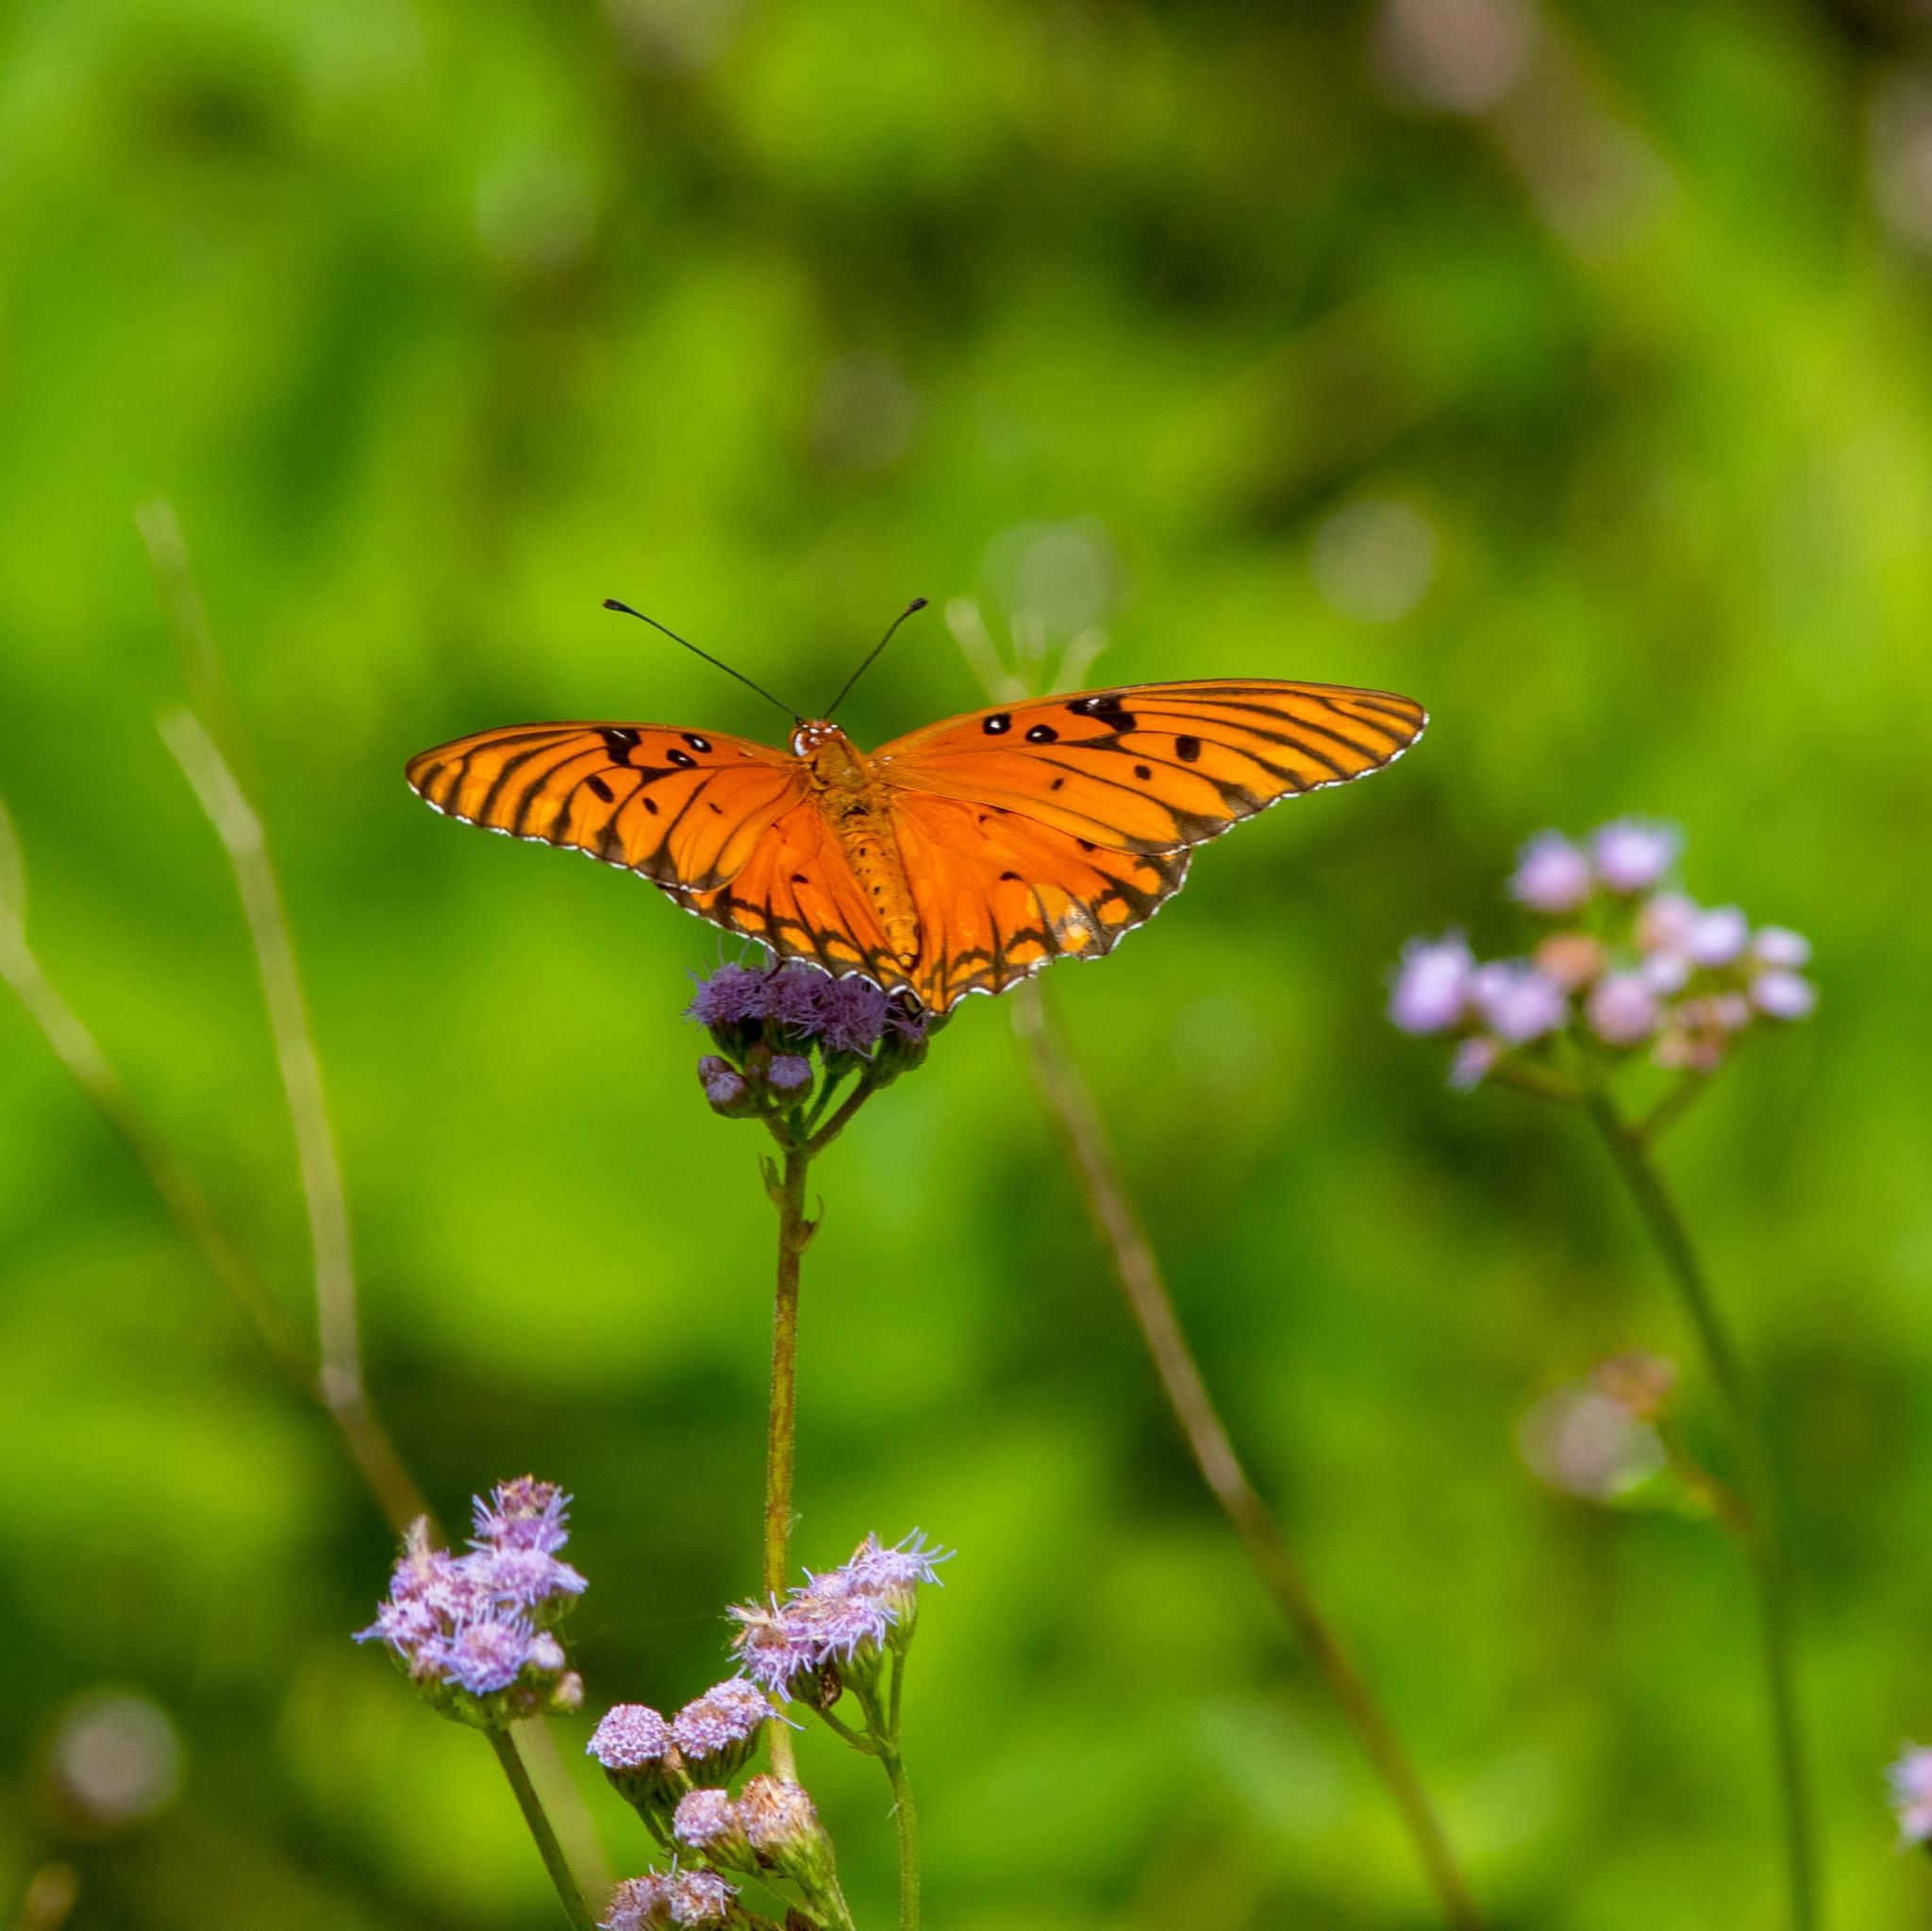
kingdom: Animalia
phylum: Arthropoda
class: Insecta
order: Lepidoptera
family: Nymphalidae
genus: Dione
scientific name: Dione vanillae
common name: Gulf fritillary
